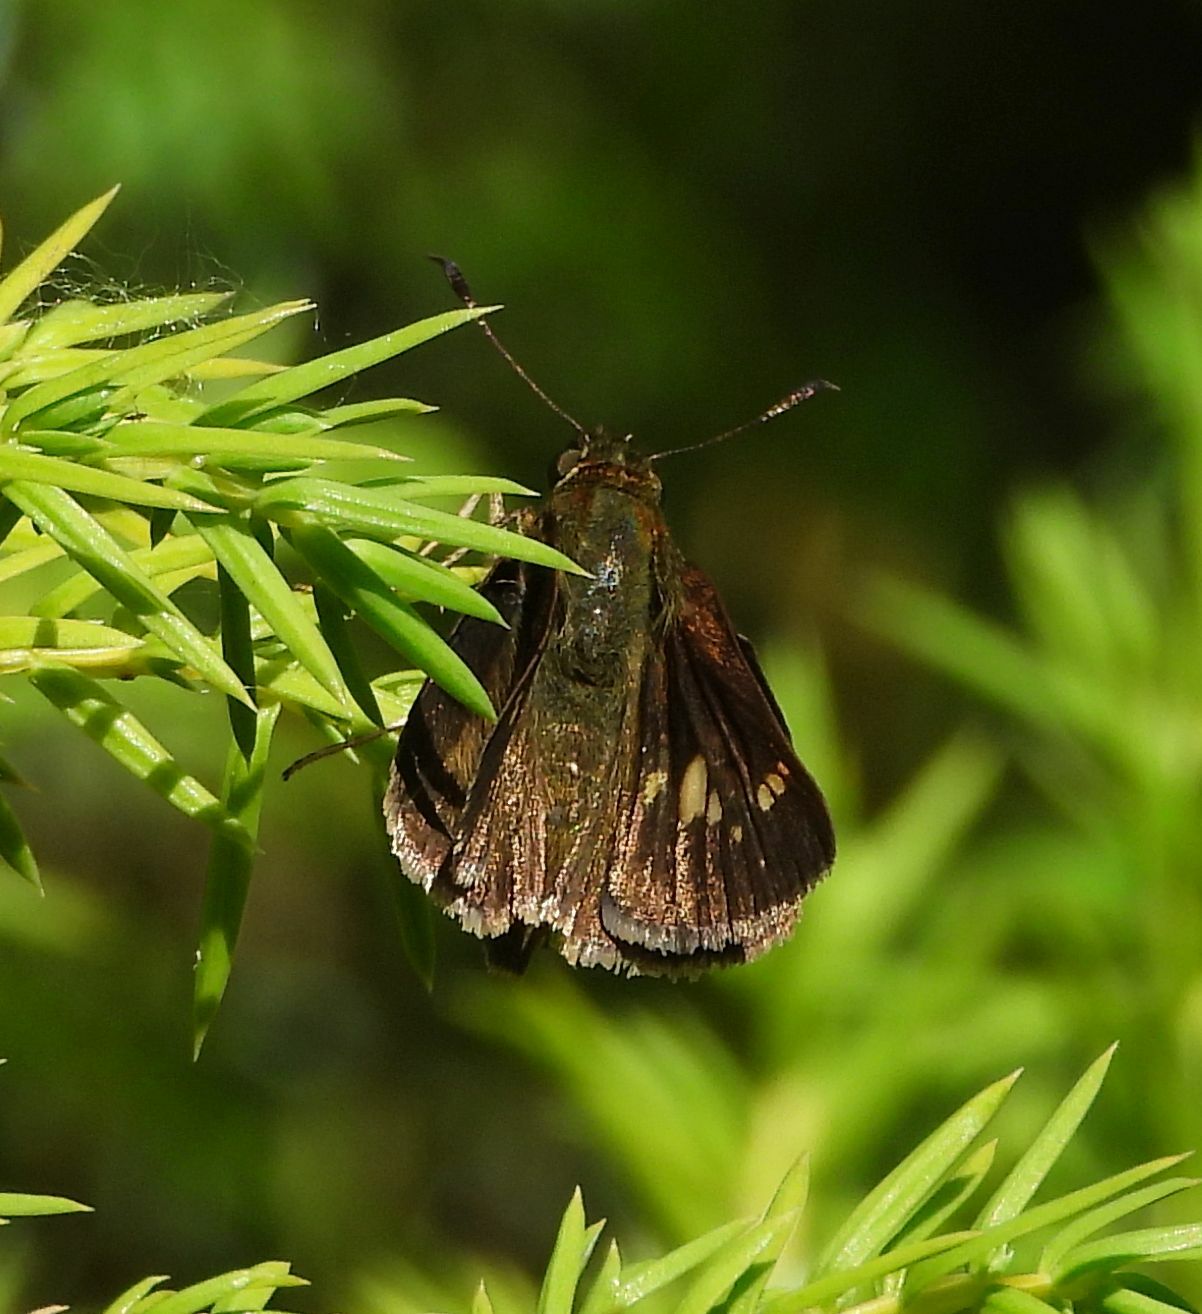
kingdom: Animalia
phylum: Arthropoda
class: Insecta
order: Lepidoptera
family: Hesperiidae
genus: Vernia
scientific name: Vernia verna
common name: Little glassywing
